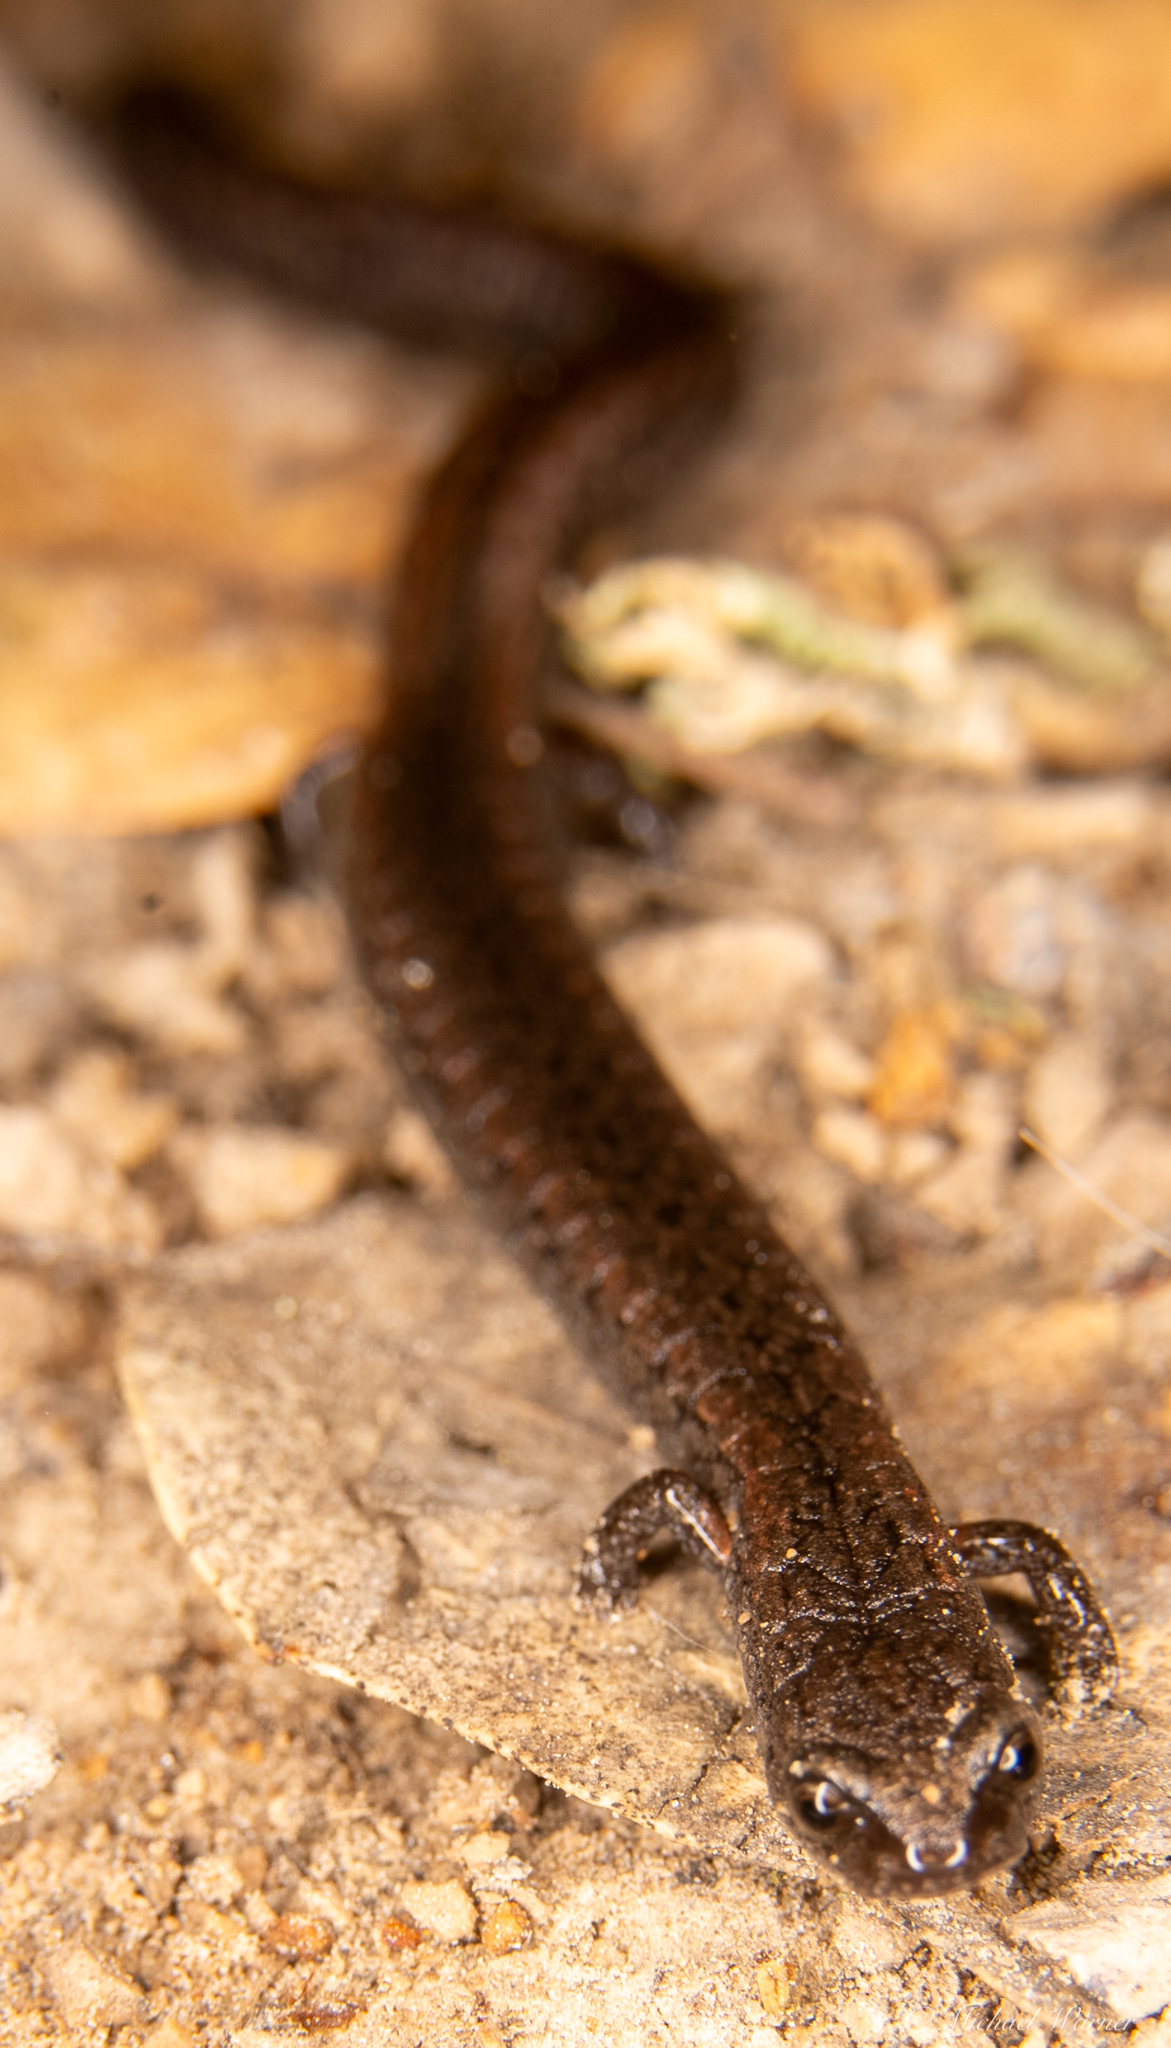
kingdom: Animalia
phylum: Chordata
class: Amphibia
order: Caudata
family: Plethodontidae
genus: Batrachoseps
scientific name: Batrachoseps attenuatus
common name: California slender salamander
